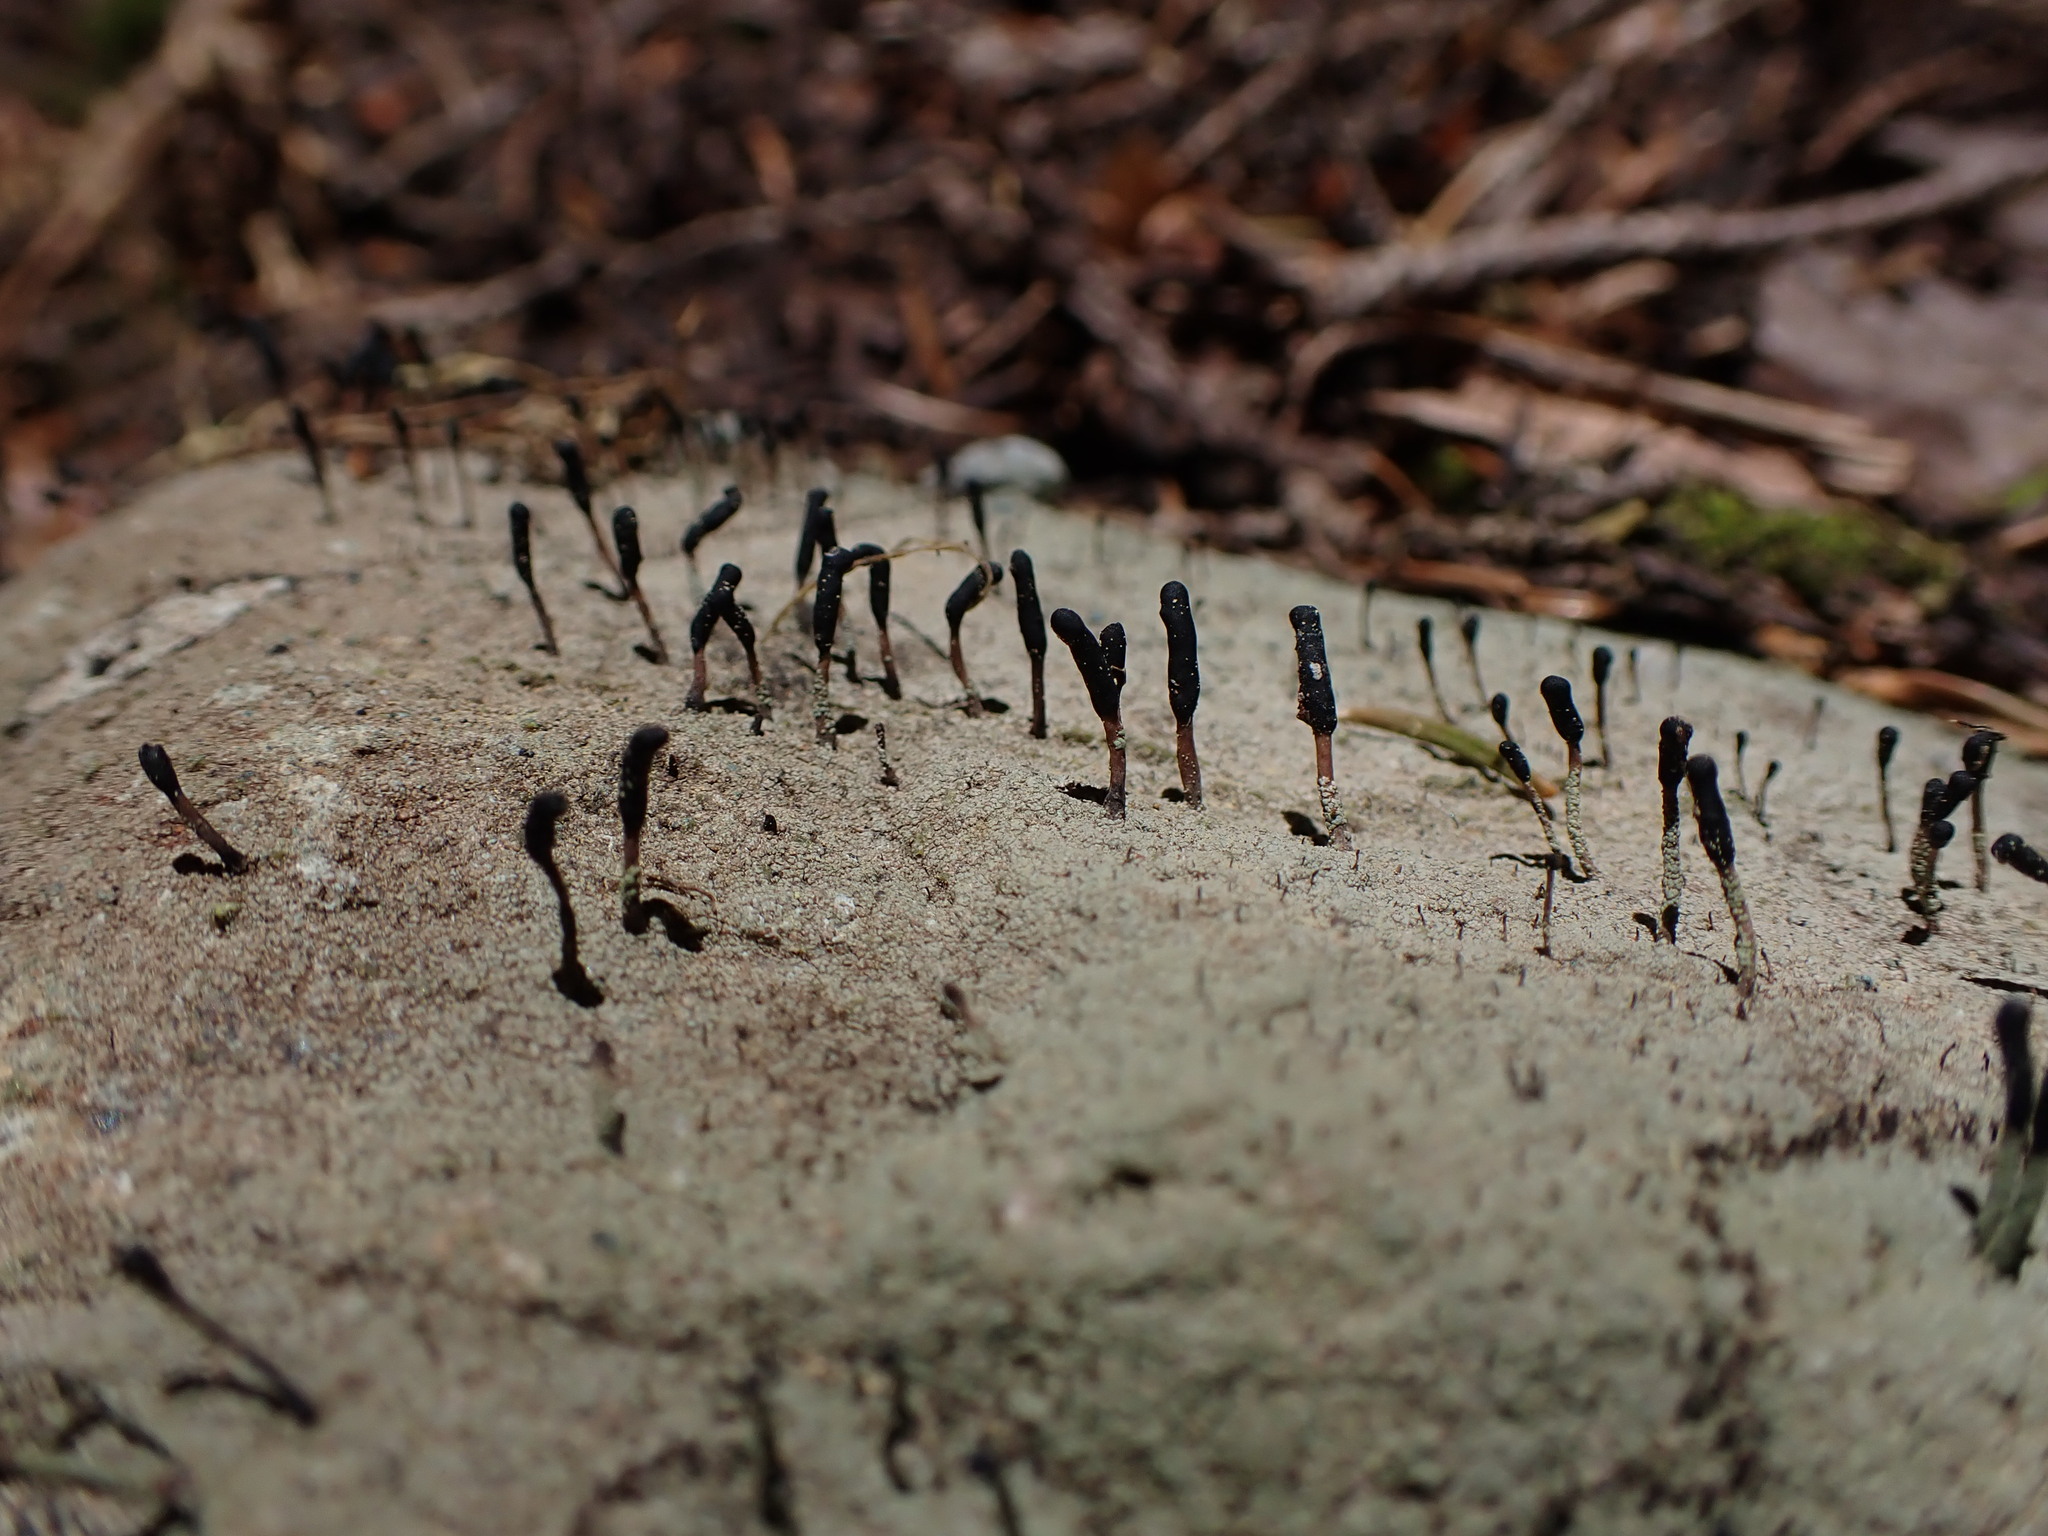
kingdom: Fungi
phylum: Ascomycota
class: Lecanoromycetes
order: Lecanorales
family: Cladoniaceae
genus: Pilophorus
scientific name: Pilophorus clavatus
